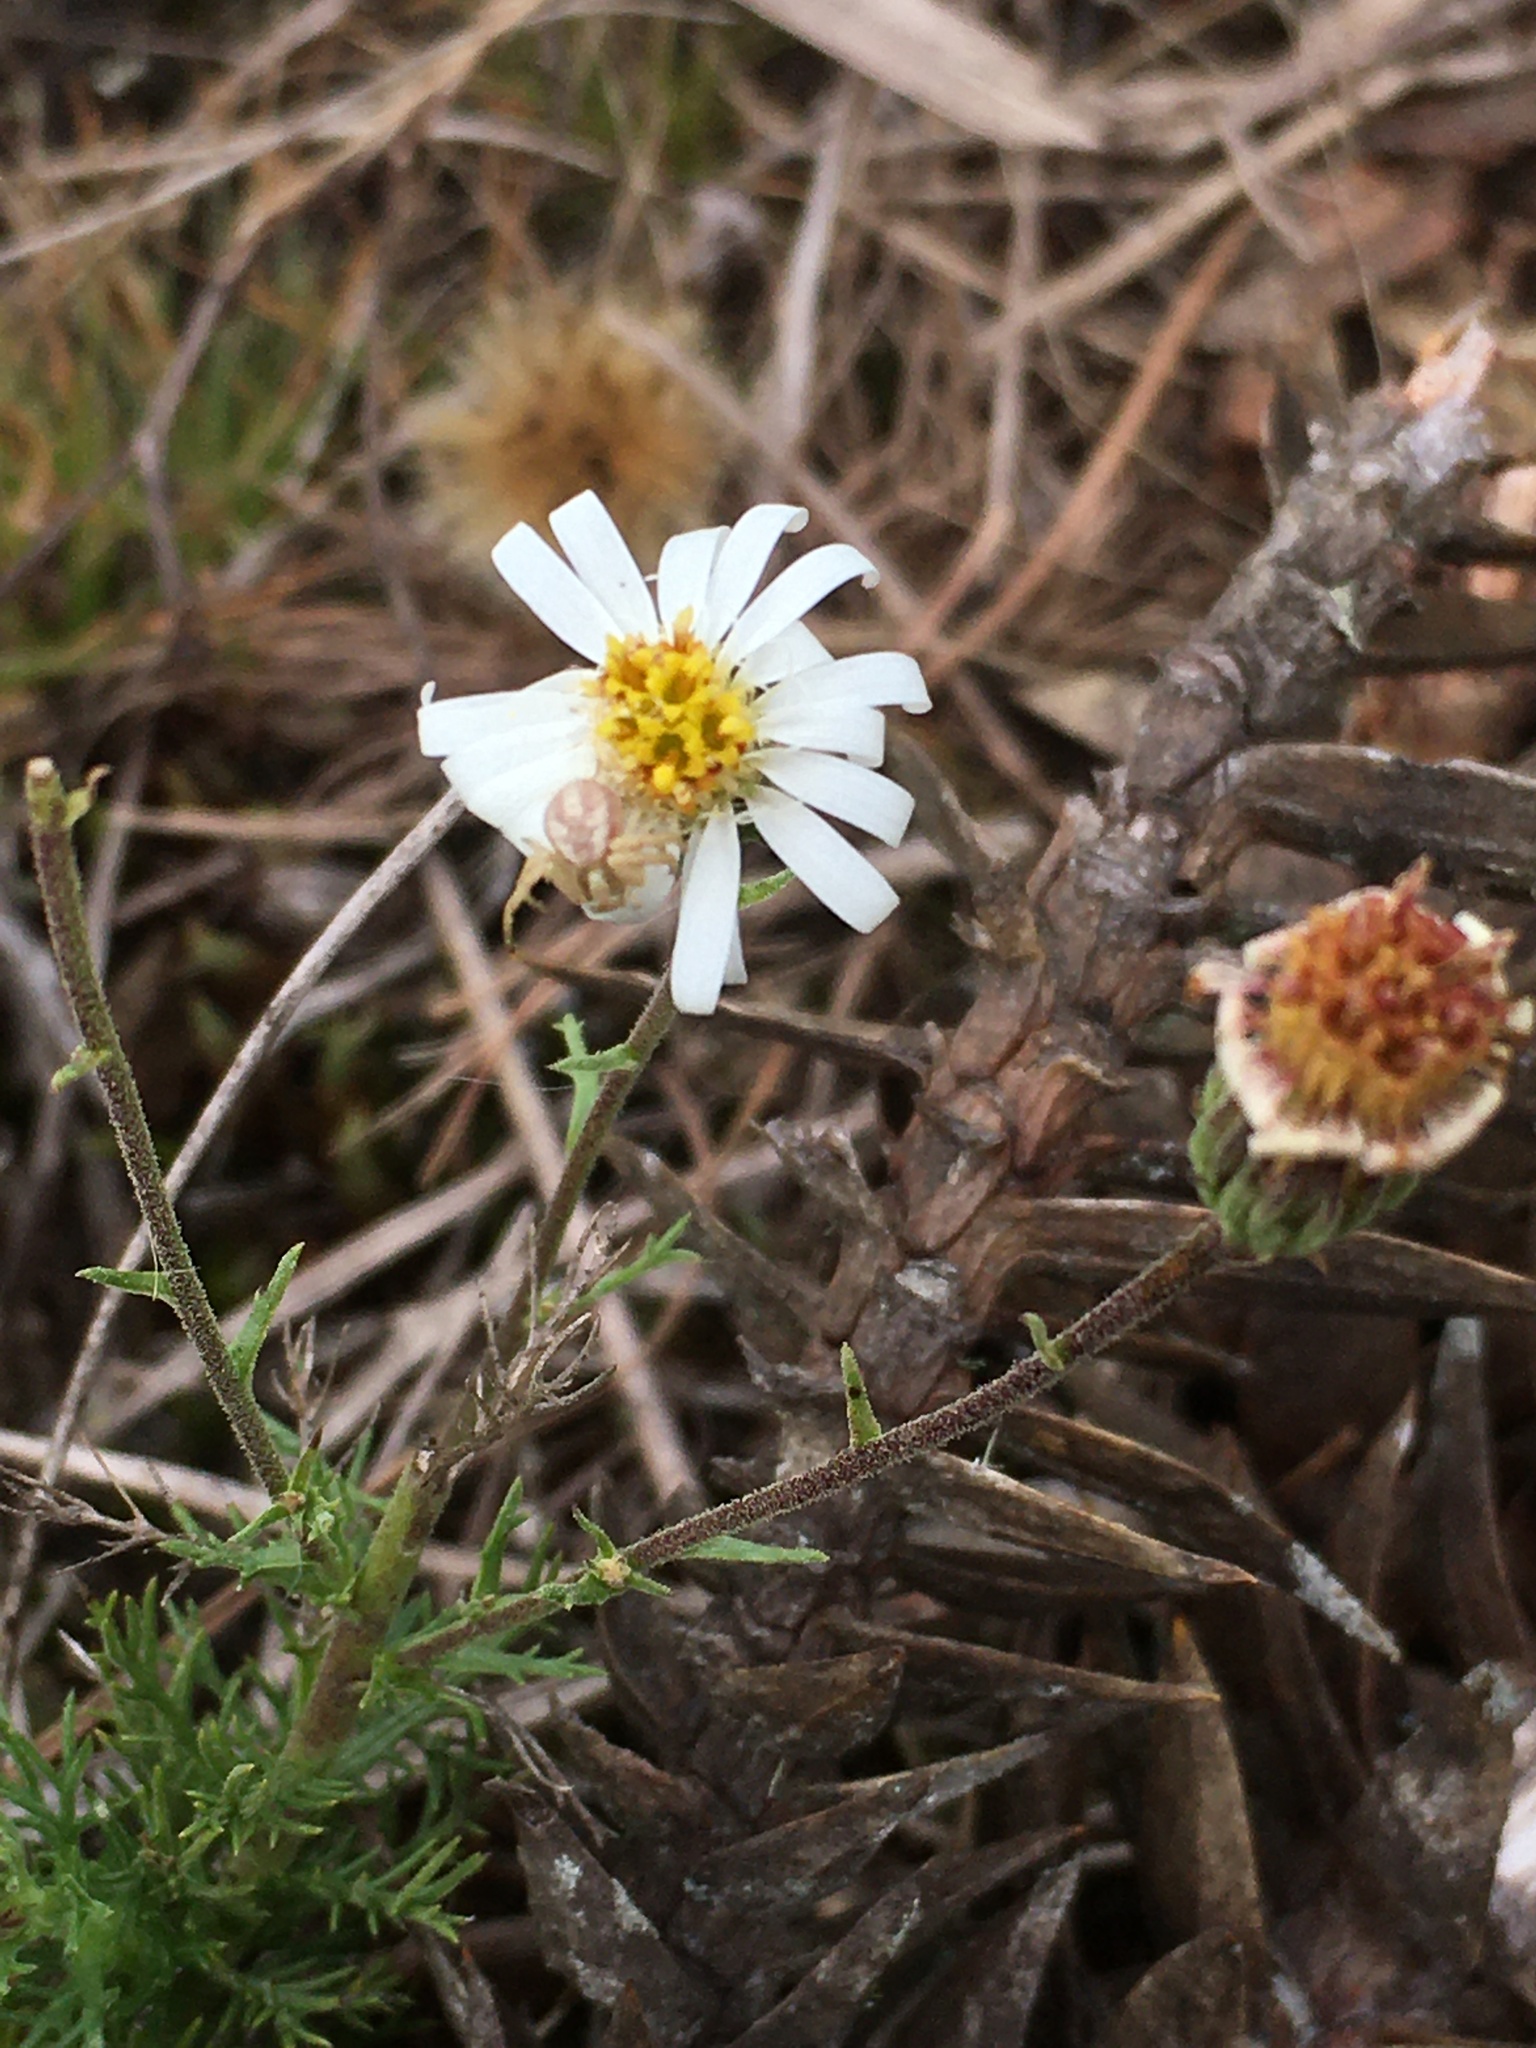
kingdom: Plantae
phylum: Tracheophyta
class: Magnoliopsida
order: Asterales
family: Asteraceae
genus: Sommerfeltia
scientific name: Sommerfeltia spinulosa
